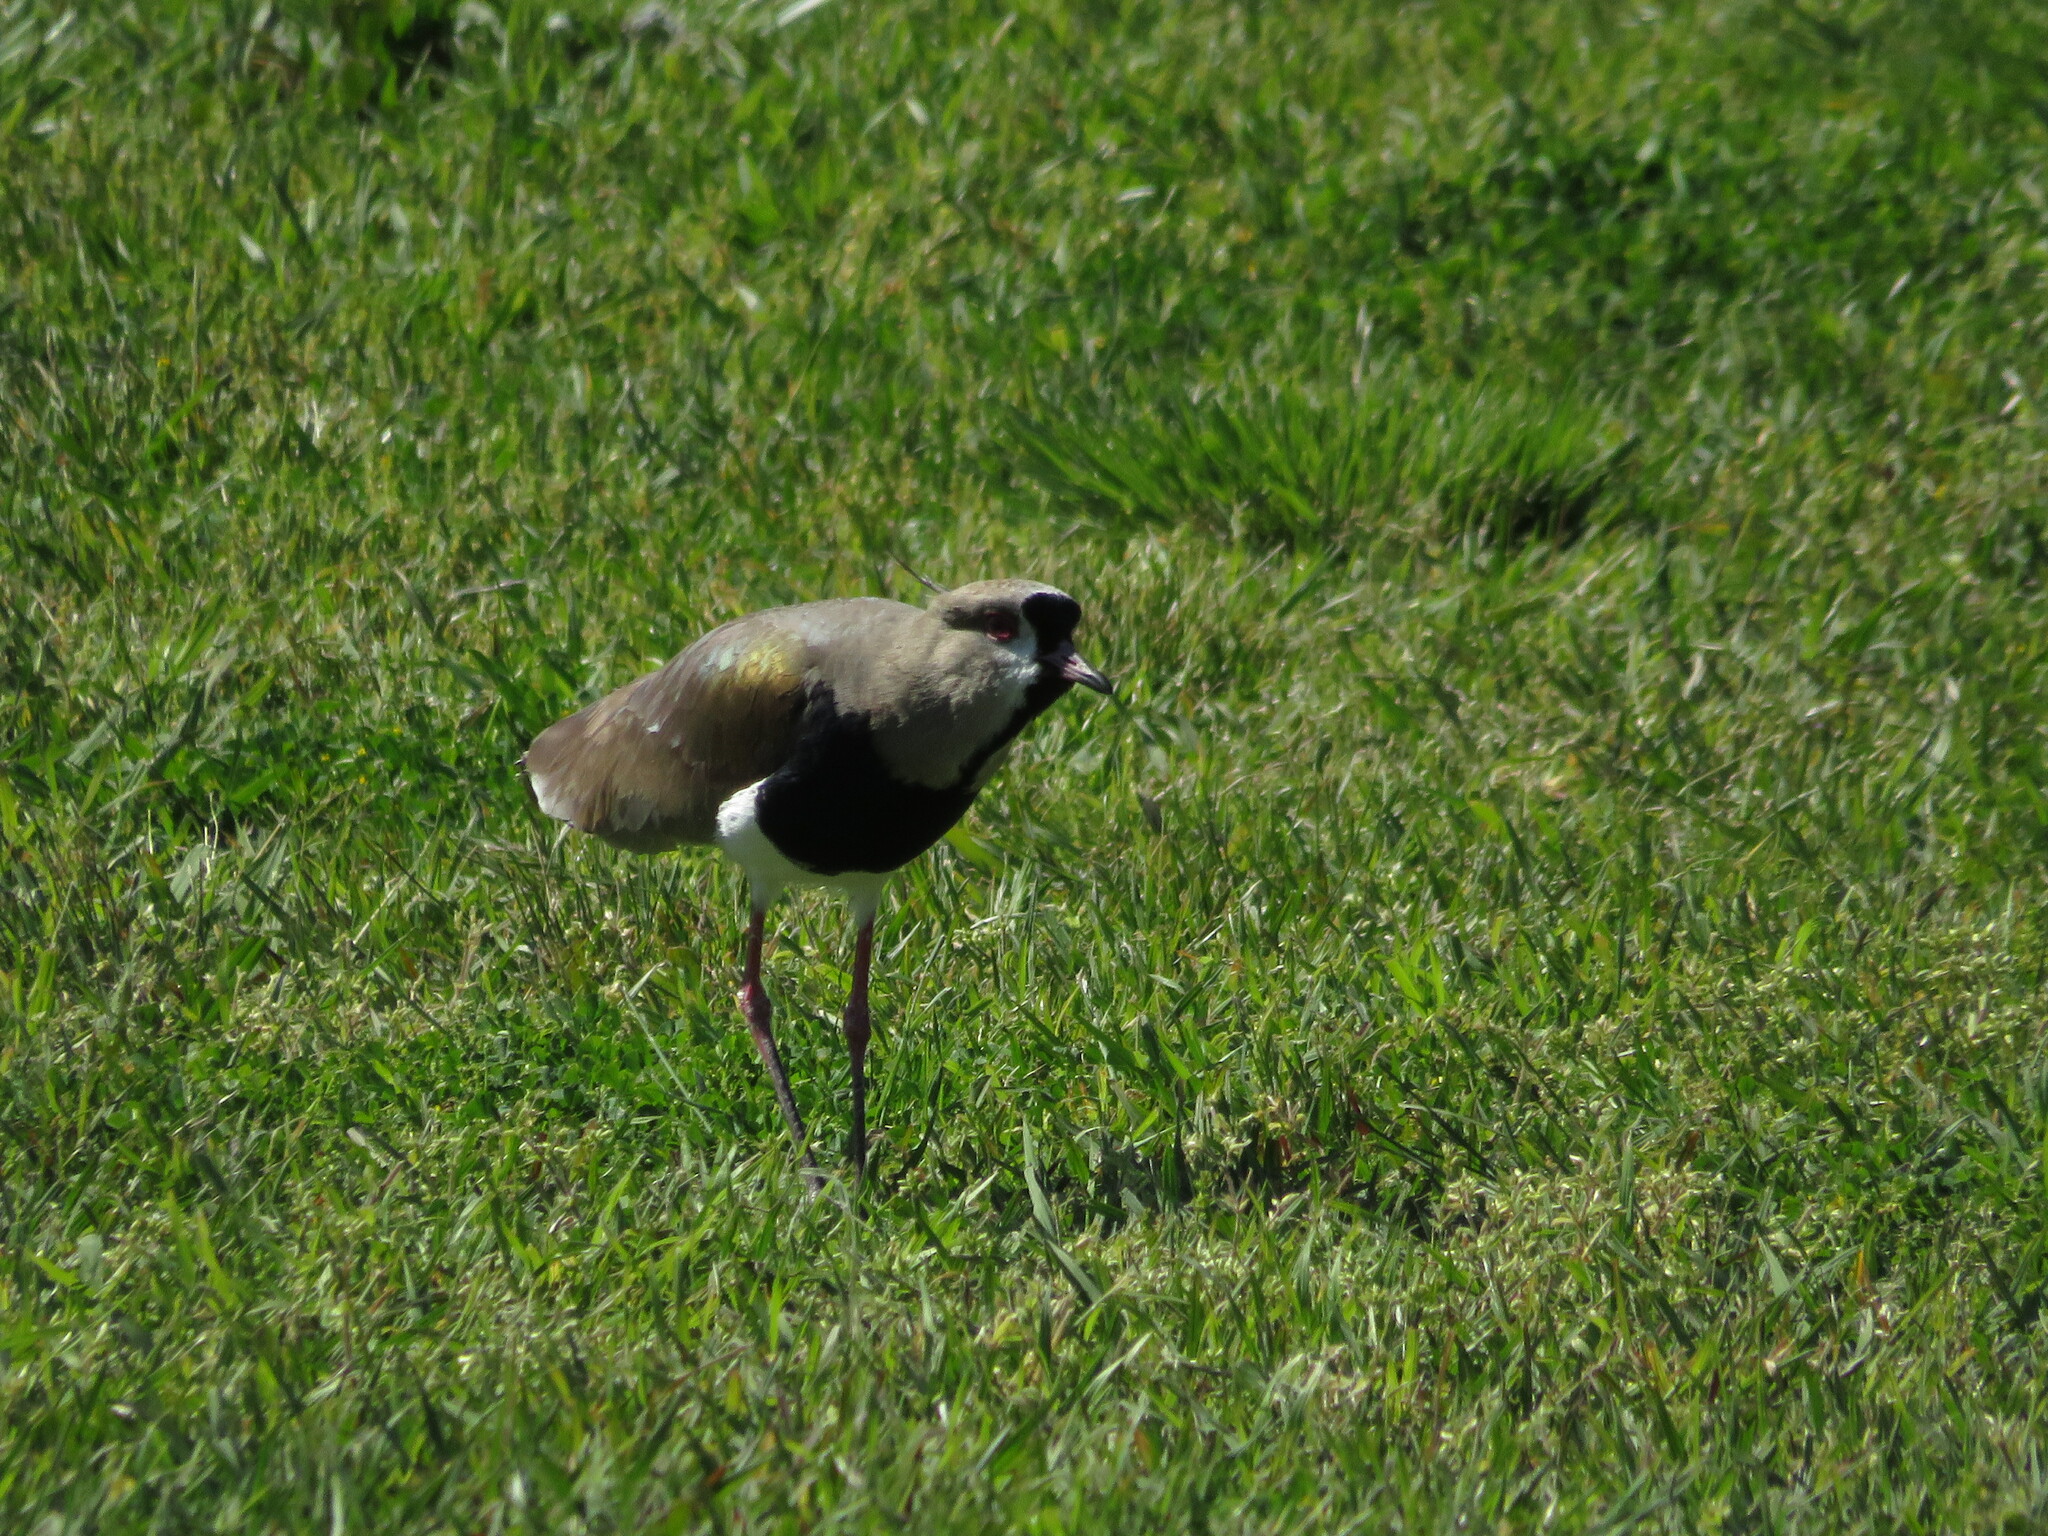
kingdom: Animalia
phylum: Chordata
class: Aves
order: Charadriiformes
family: Charadriidae
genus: Vanellus
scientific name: Vanellus chilensis
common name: Southern lapwing
